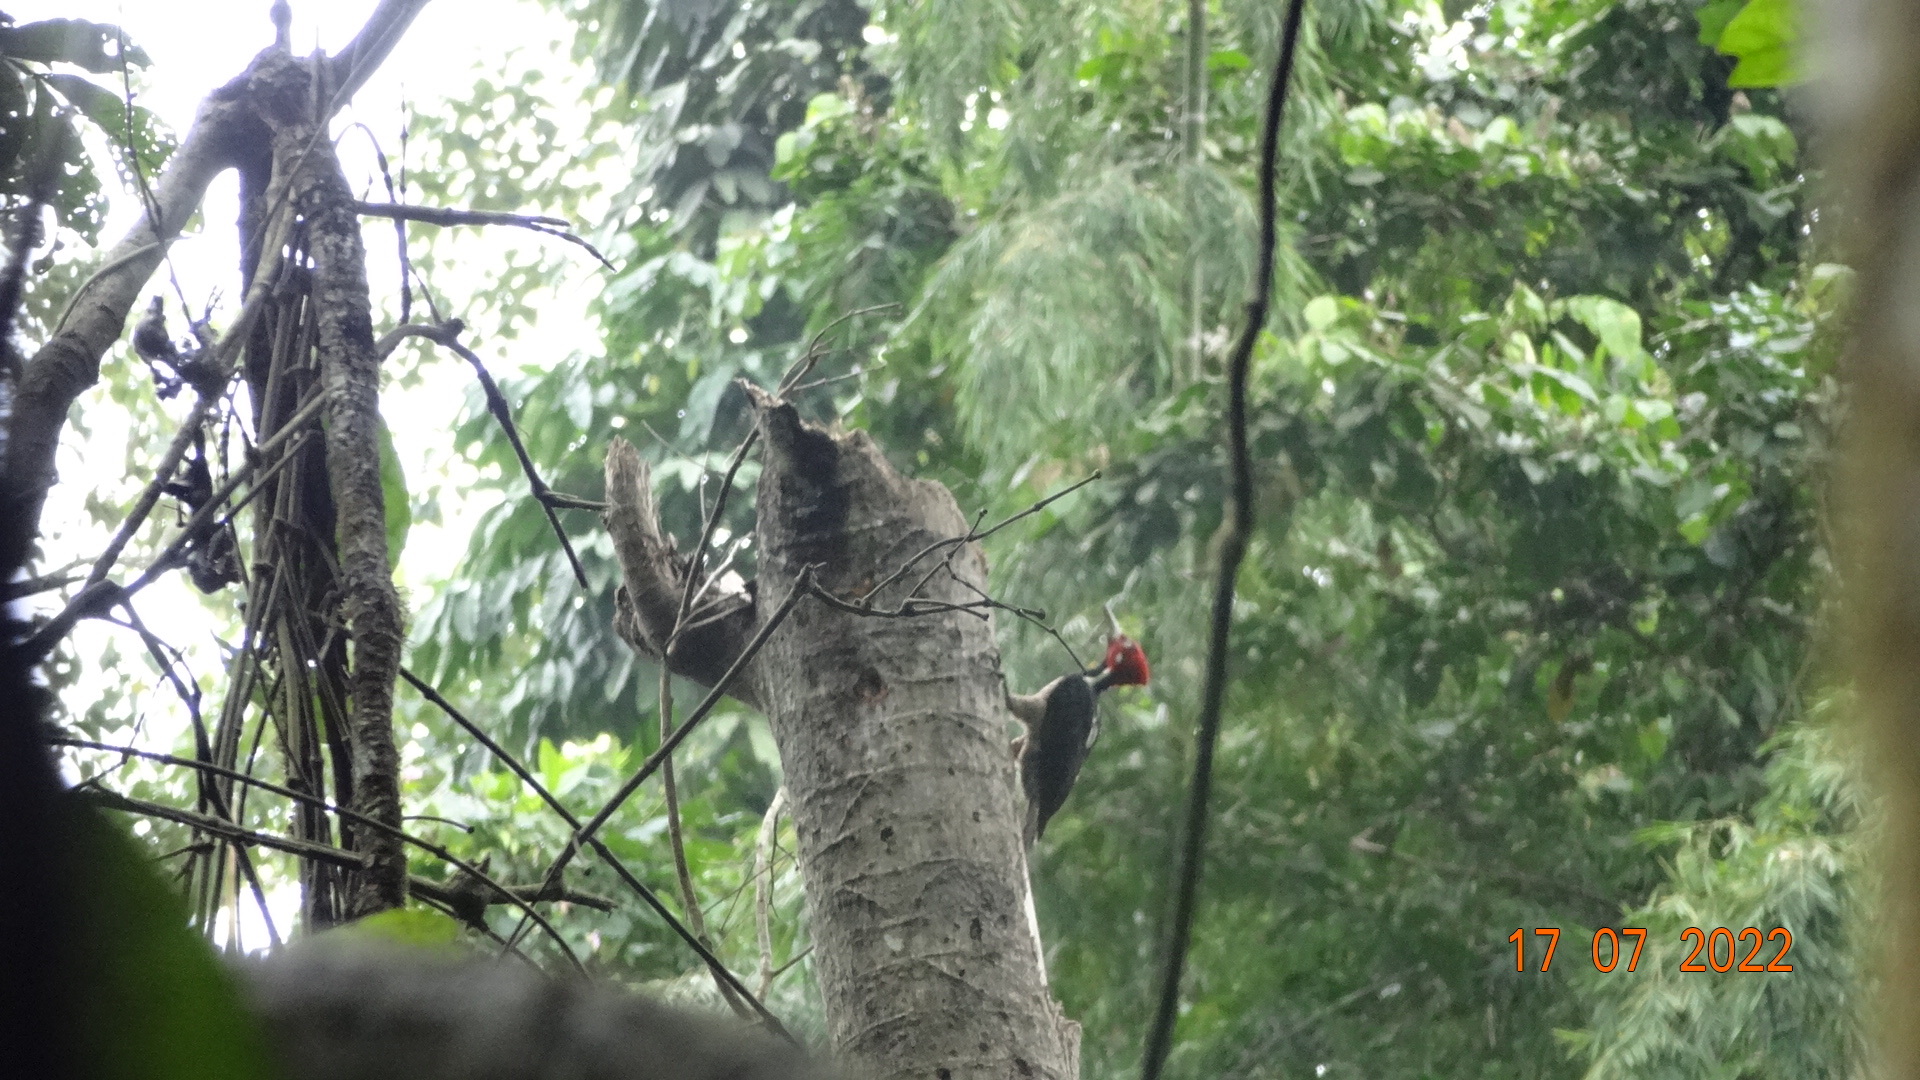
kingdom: Animalia
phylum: Chordata
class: Aves
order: Piciformes
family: Picidae
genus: Campephilus
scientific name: Campephilus gayaquilensis
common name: Guayaquil woodpecker
